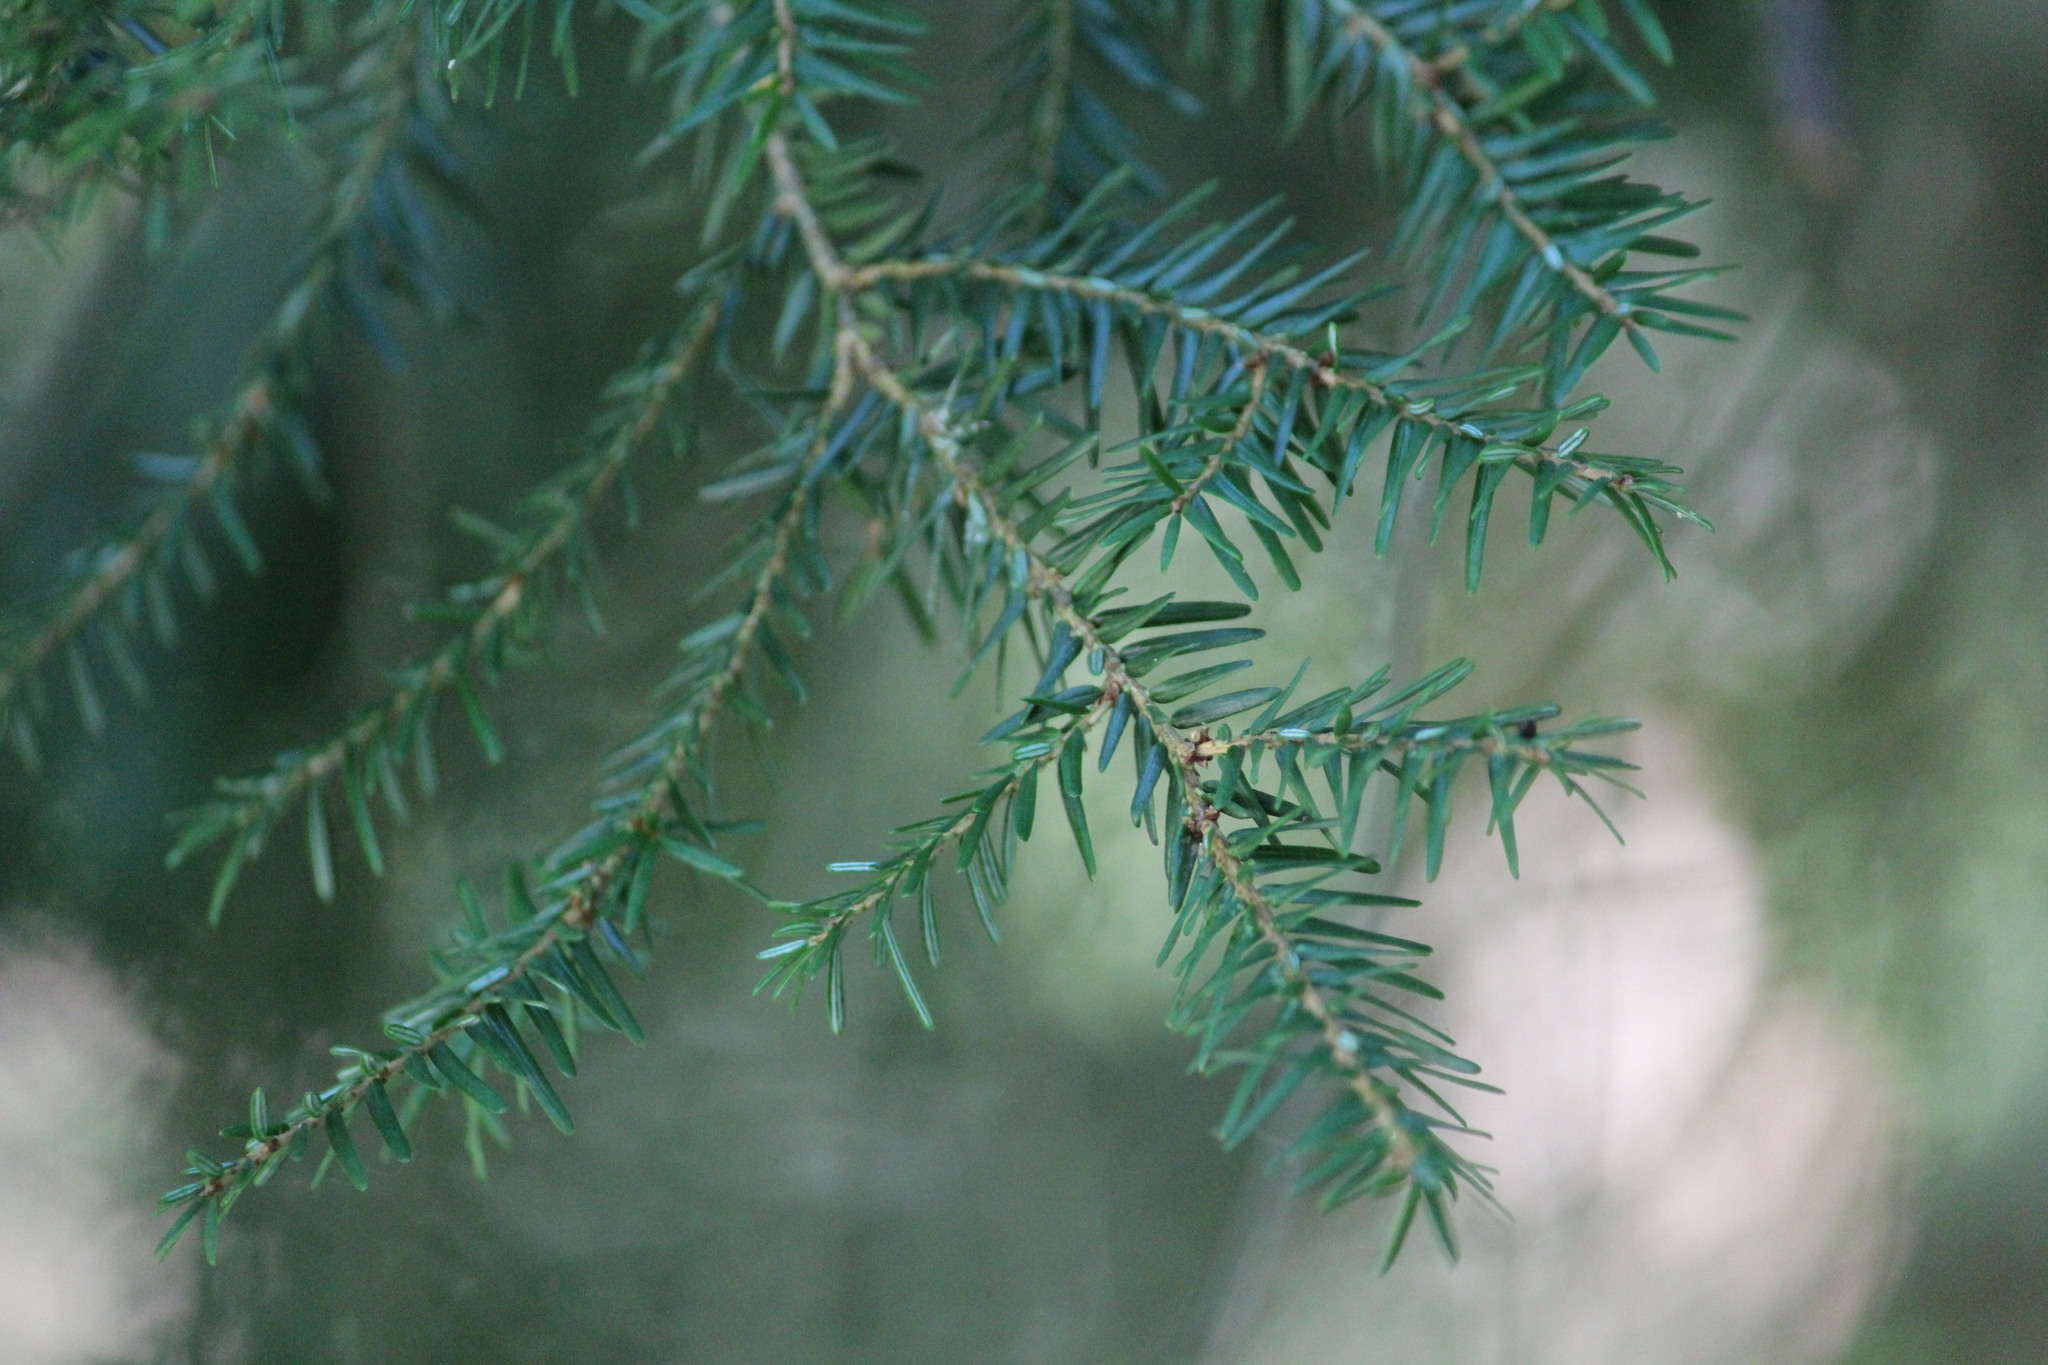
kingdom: Plantae
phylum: Tracheophyta
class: Pinopsida
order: Pinales
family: Pinaceae
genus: Tsuga
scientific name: Tsuga canadensis
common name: Eastern hemlock
